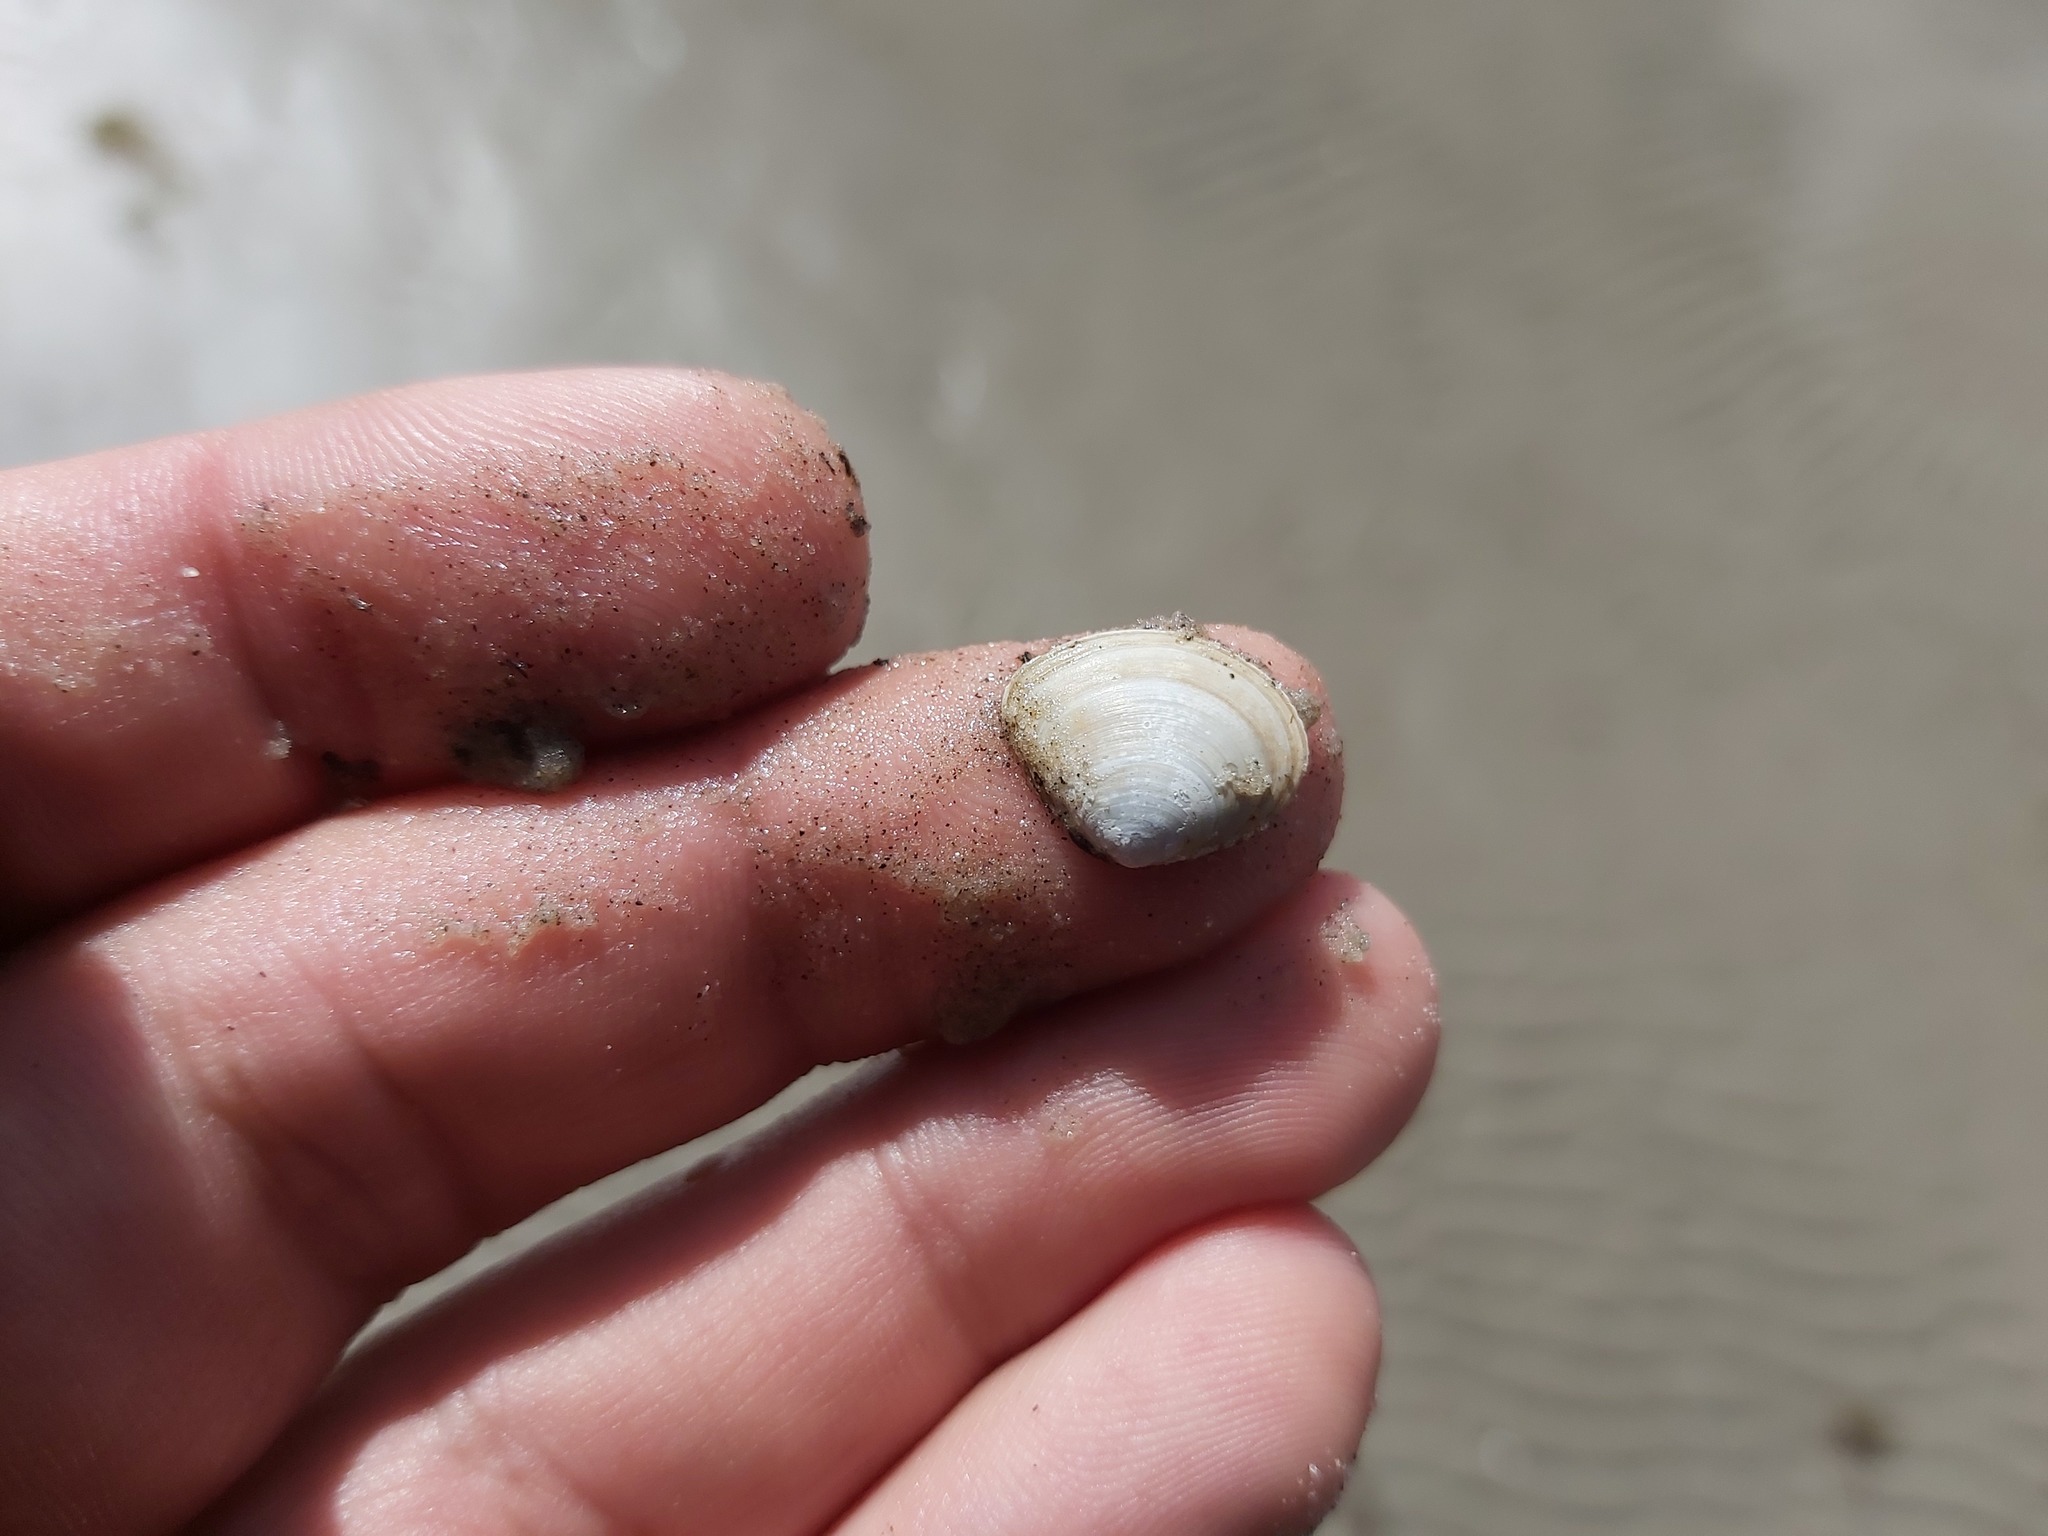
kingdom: Animalia
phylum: Mollusca
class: Bivalvia
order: Cardiida
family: Tellinidae
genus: Macoma
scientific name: Macoma balthica
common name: Baltic tellin
